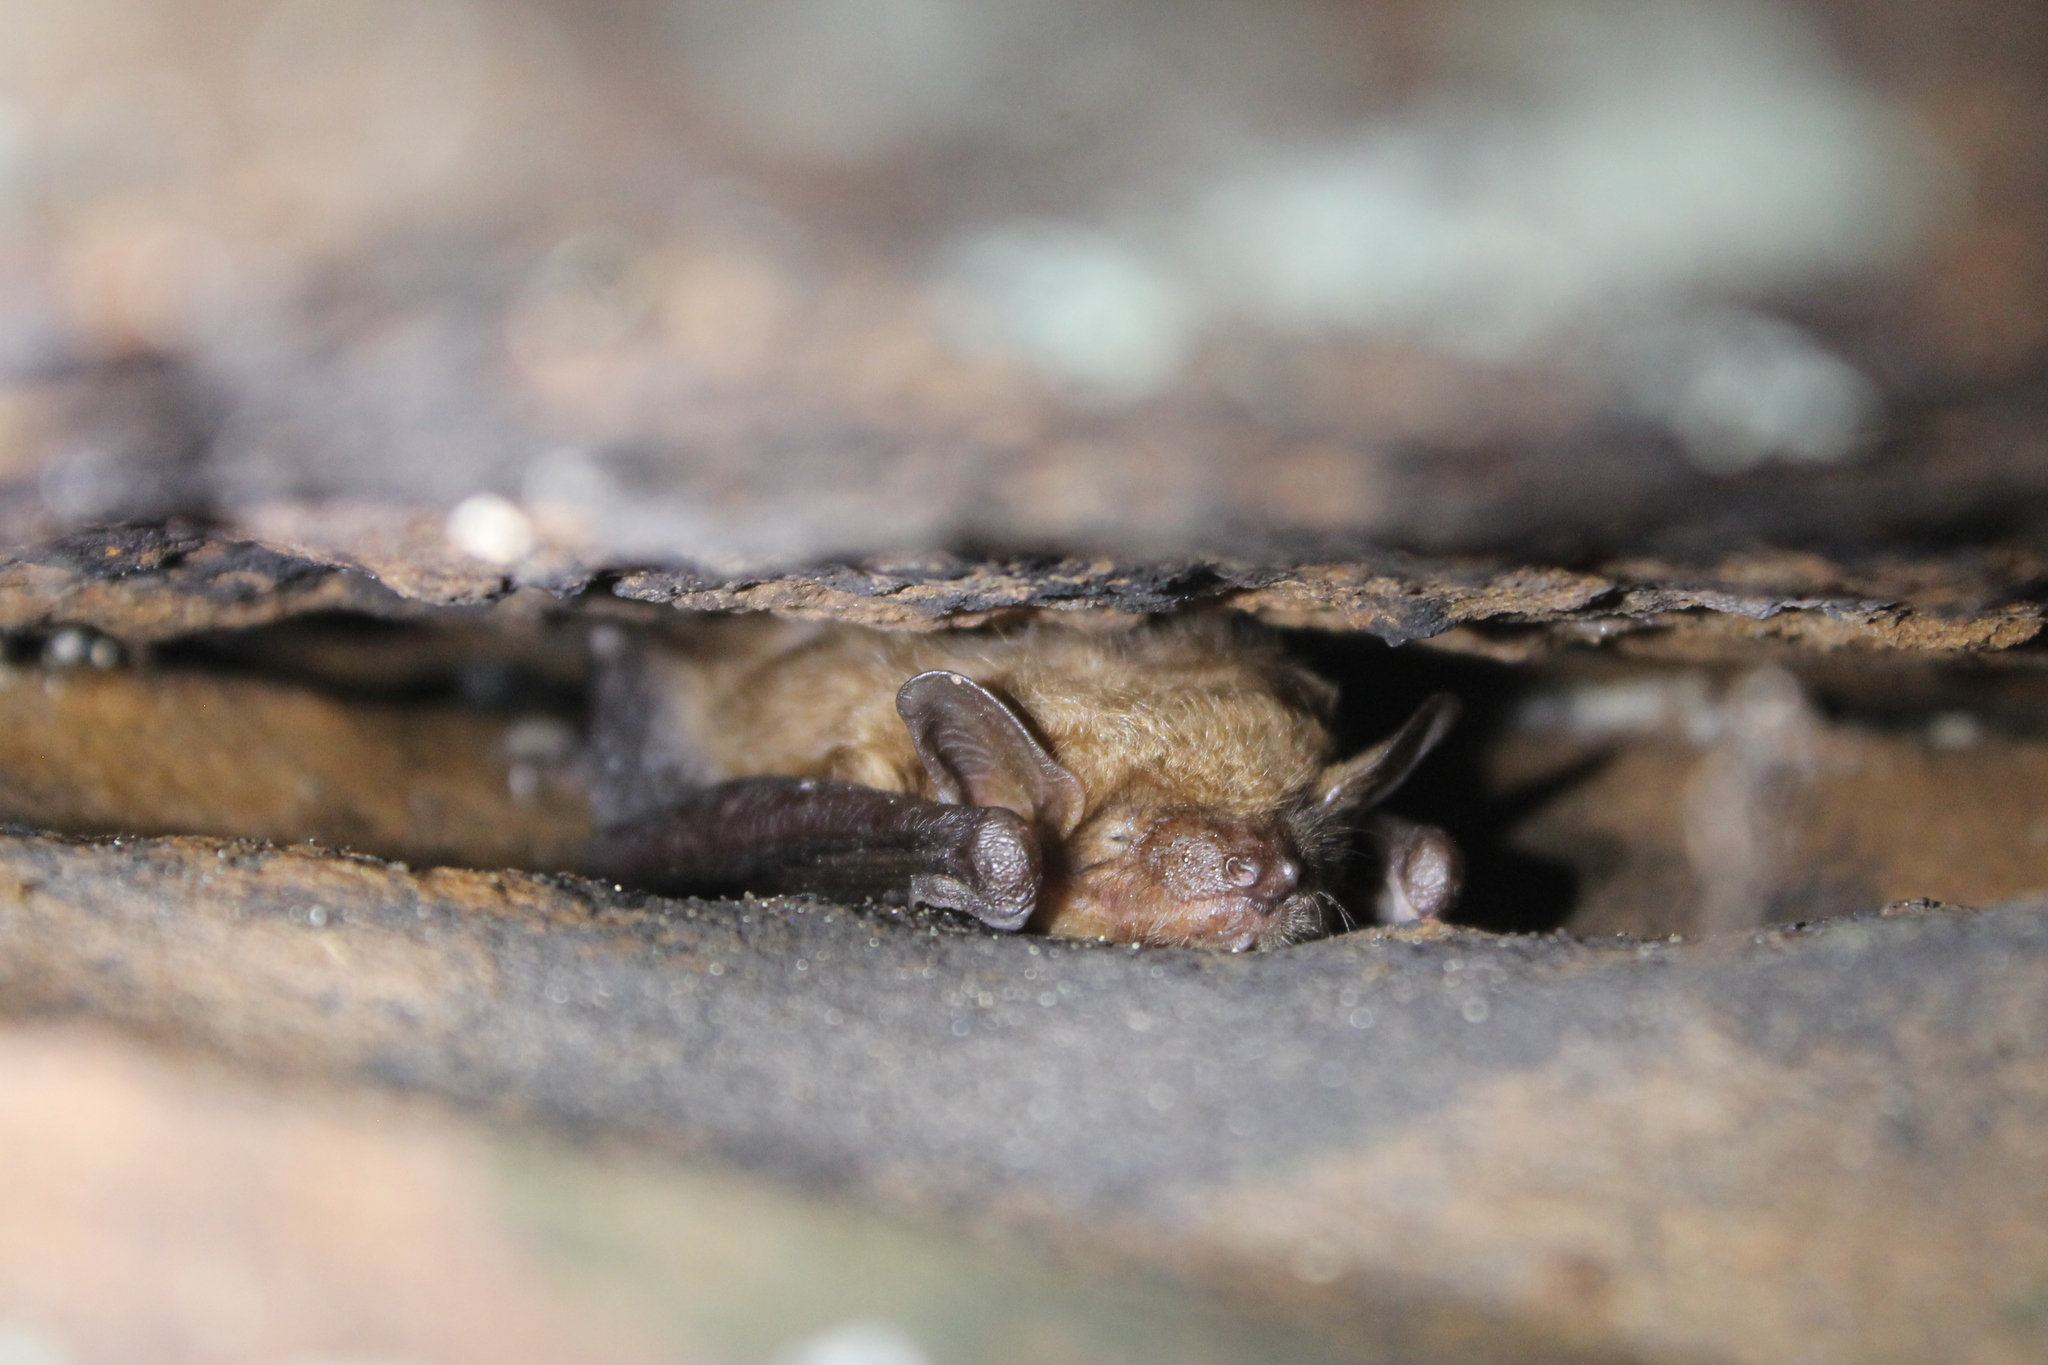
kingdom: Animalia
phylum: Chordata
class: Mammalia
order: Chiroptera
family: Vespertilionidae
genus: Eptesicus
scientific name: Eptesicus fuscus
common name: Big brown bat
